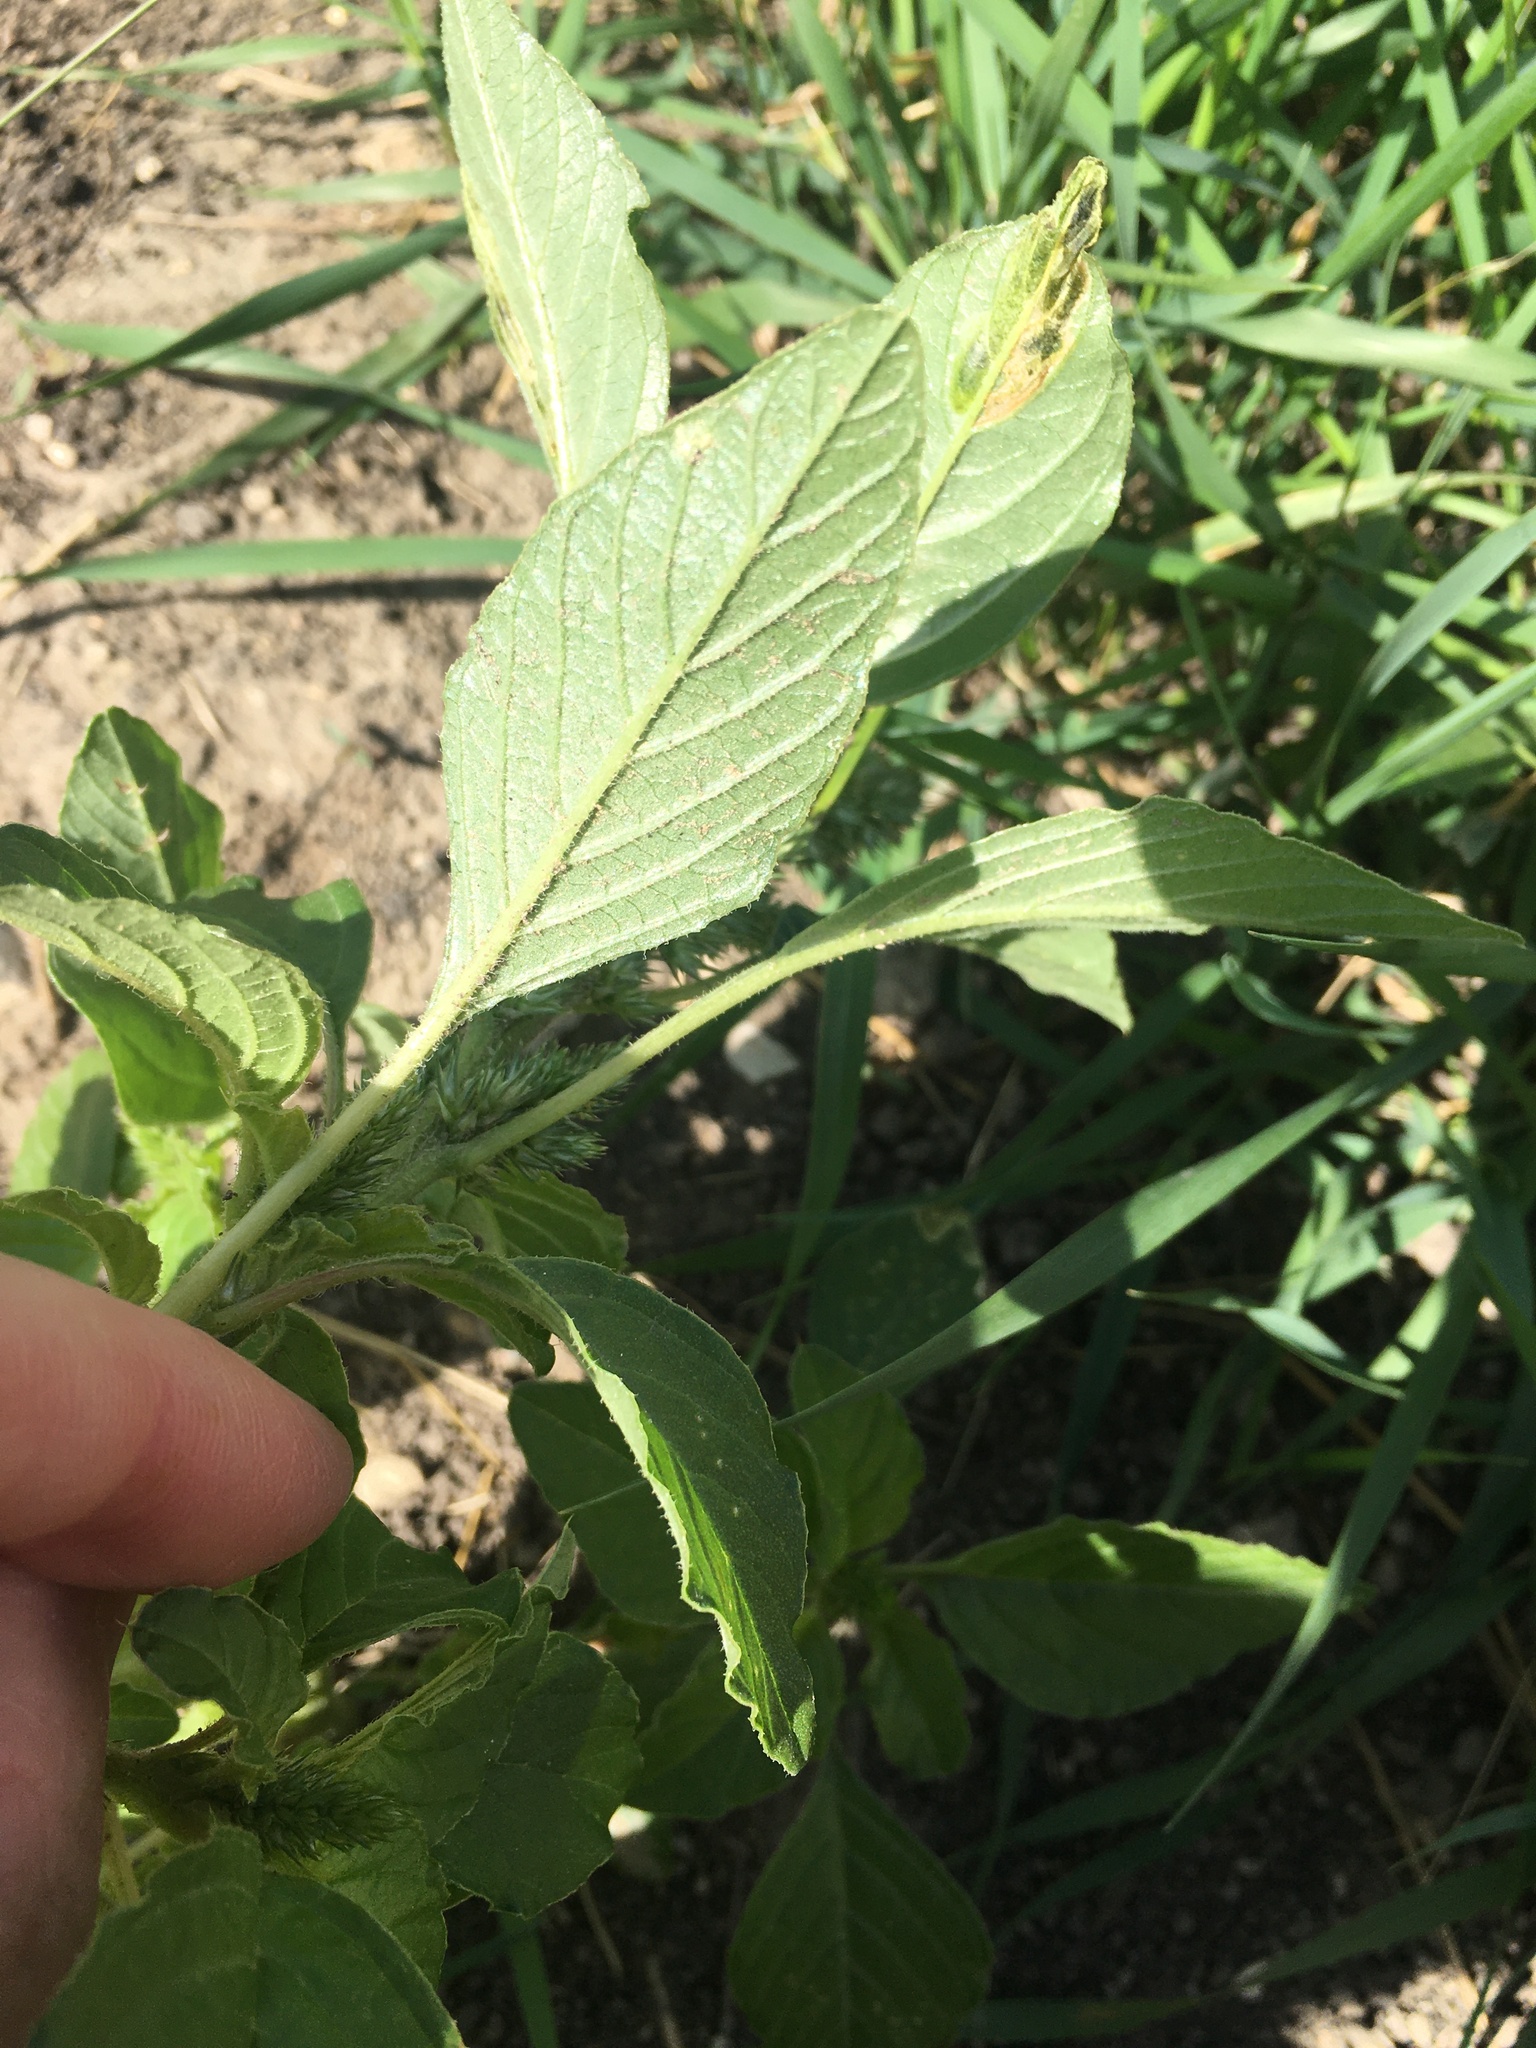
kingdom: Plantae
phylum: Tracheophyta
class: Magnoliopsida
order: Caryophyllales
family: Amaranthaceae
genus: Amaranthus
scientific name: Amaranthus retroflexus
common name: Redroot amaranth
